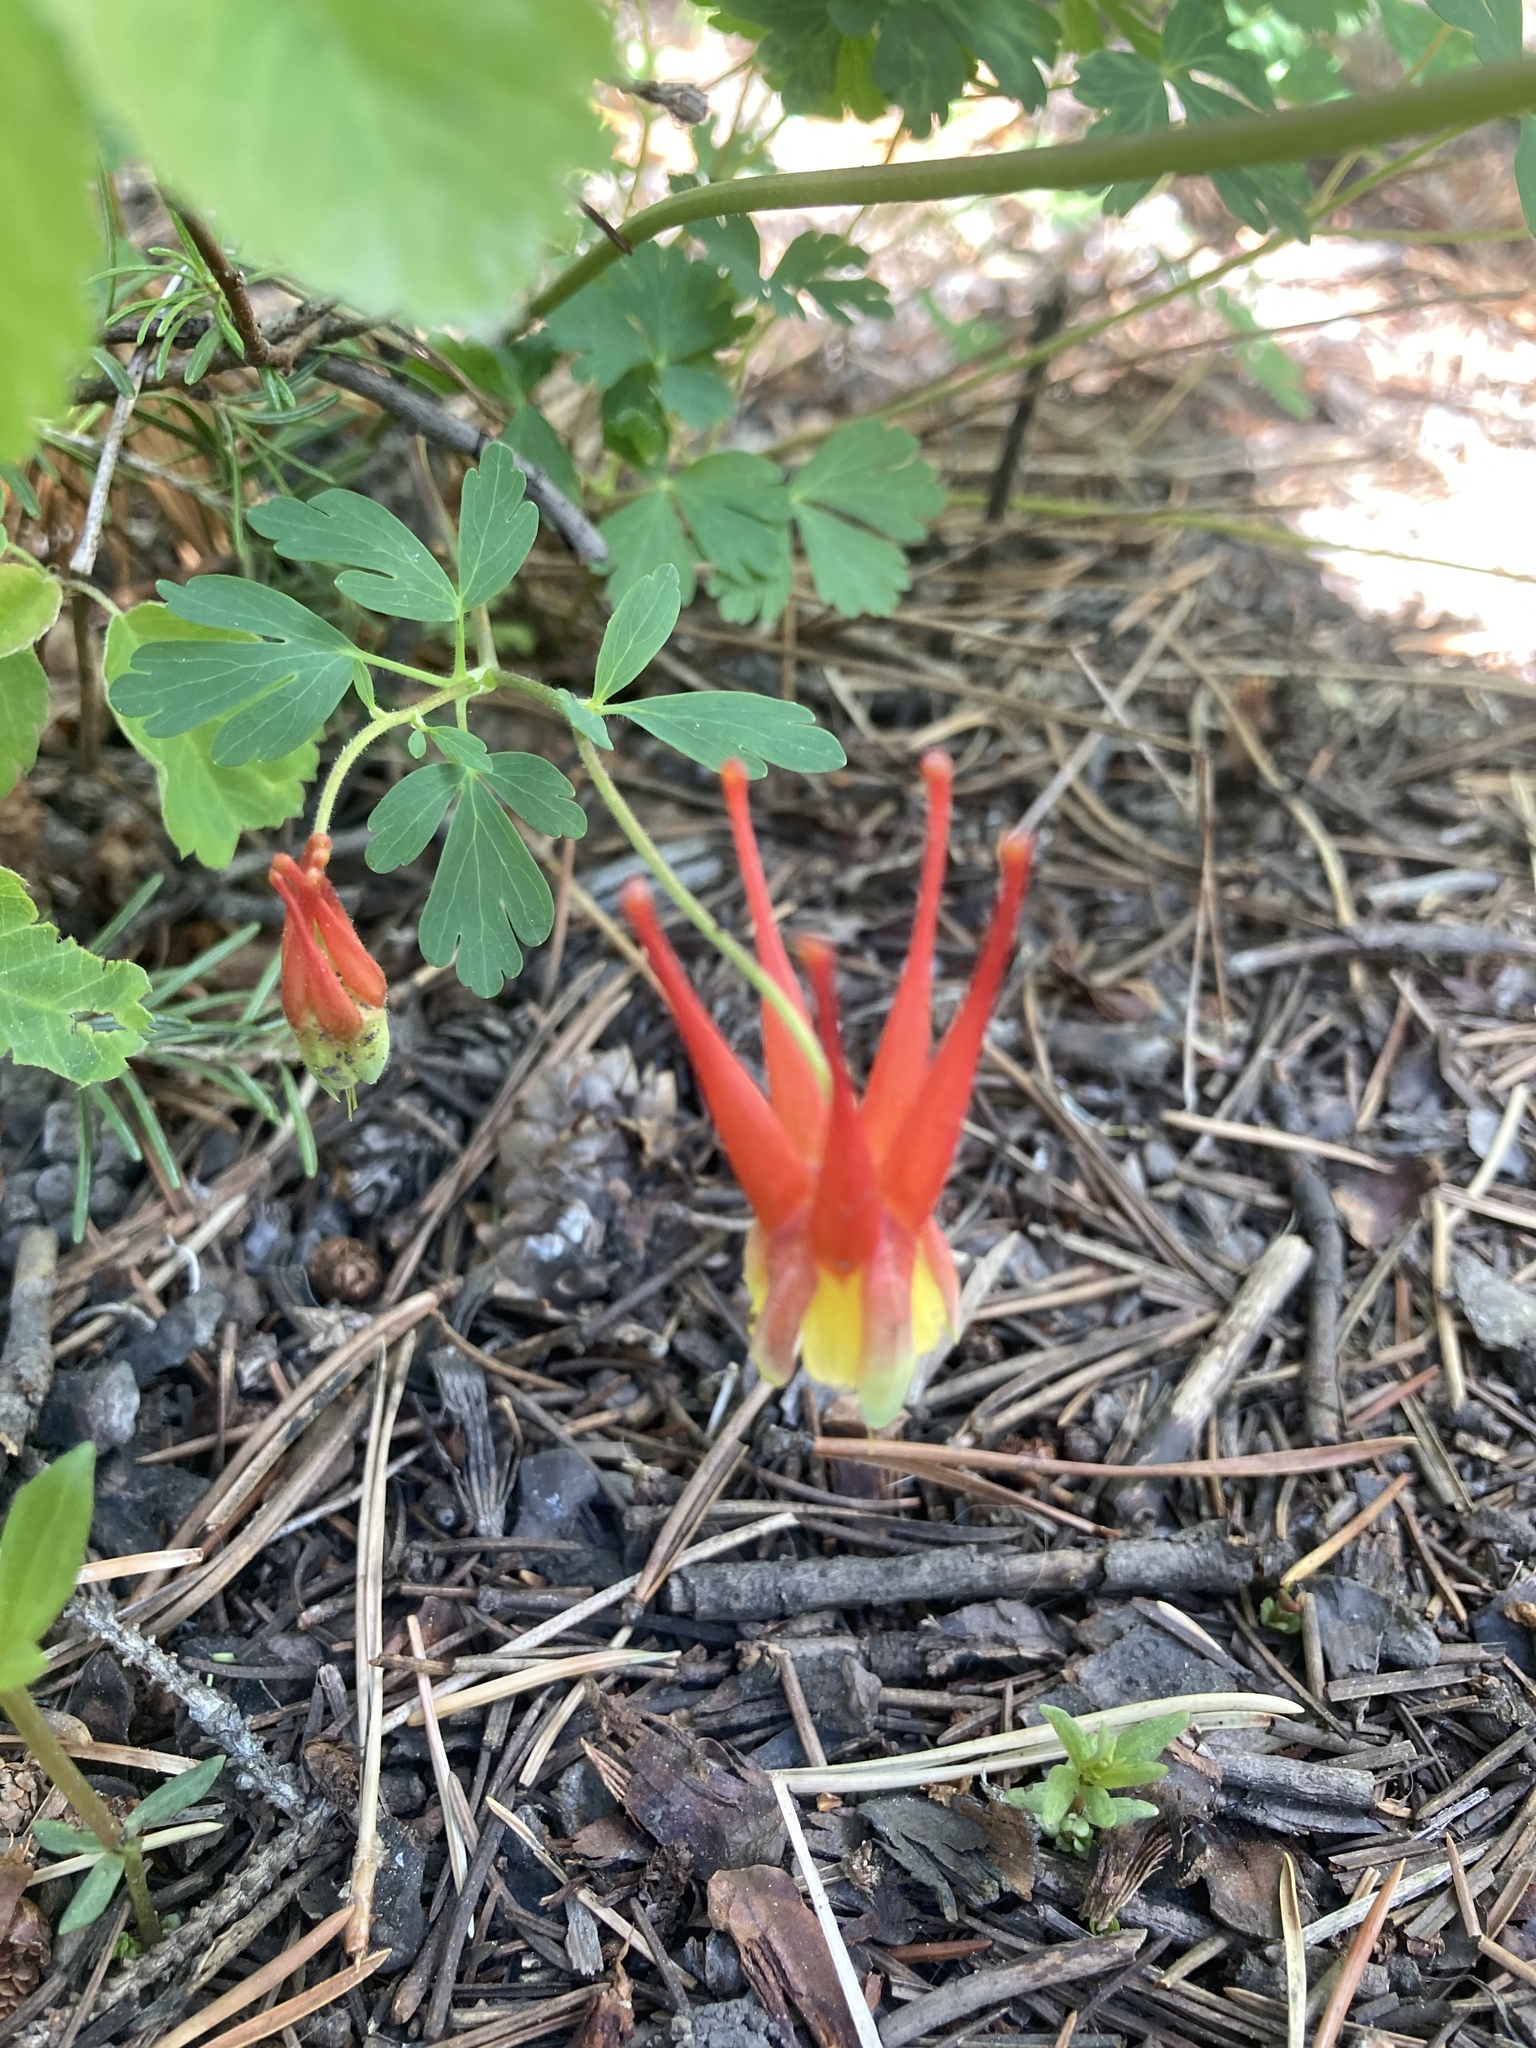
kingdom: Plantae
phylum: Tracheophyta
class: Magnoliopsida
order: Ranunculales
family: Ranunculaceae
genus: Aquilegia
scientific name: Aquilegia elegantula
